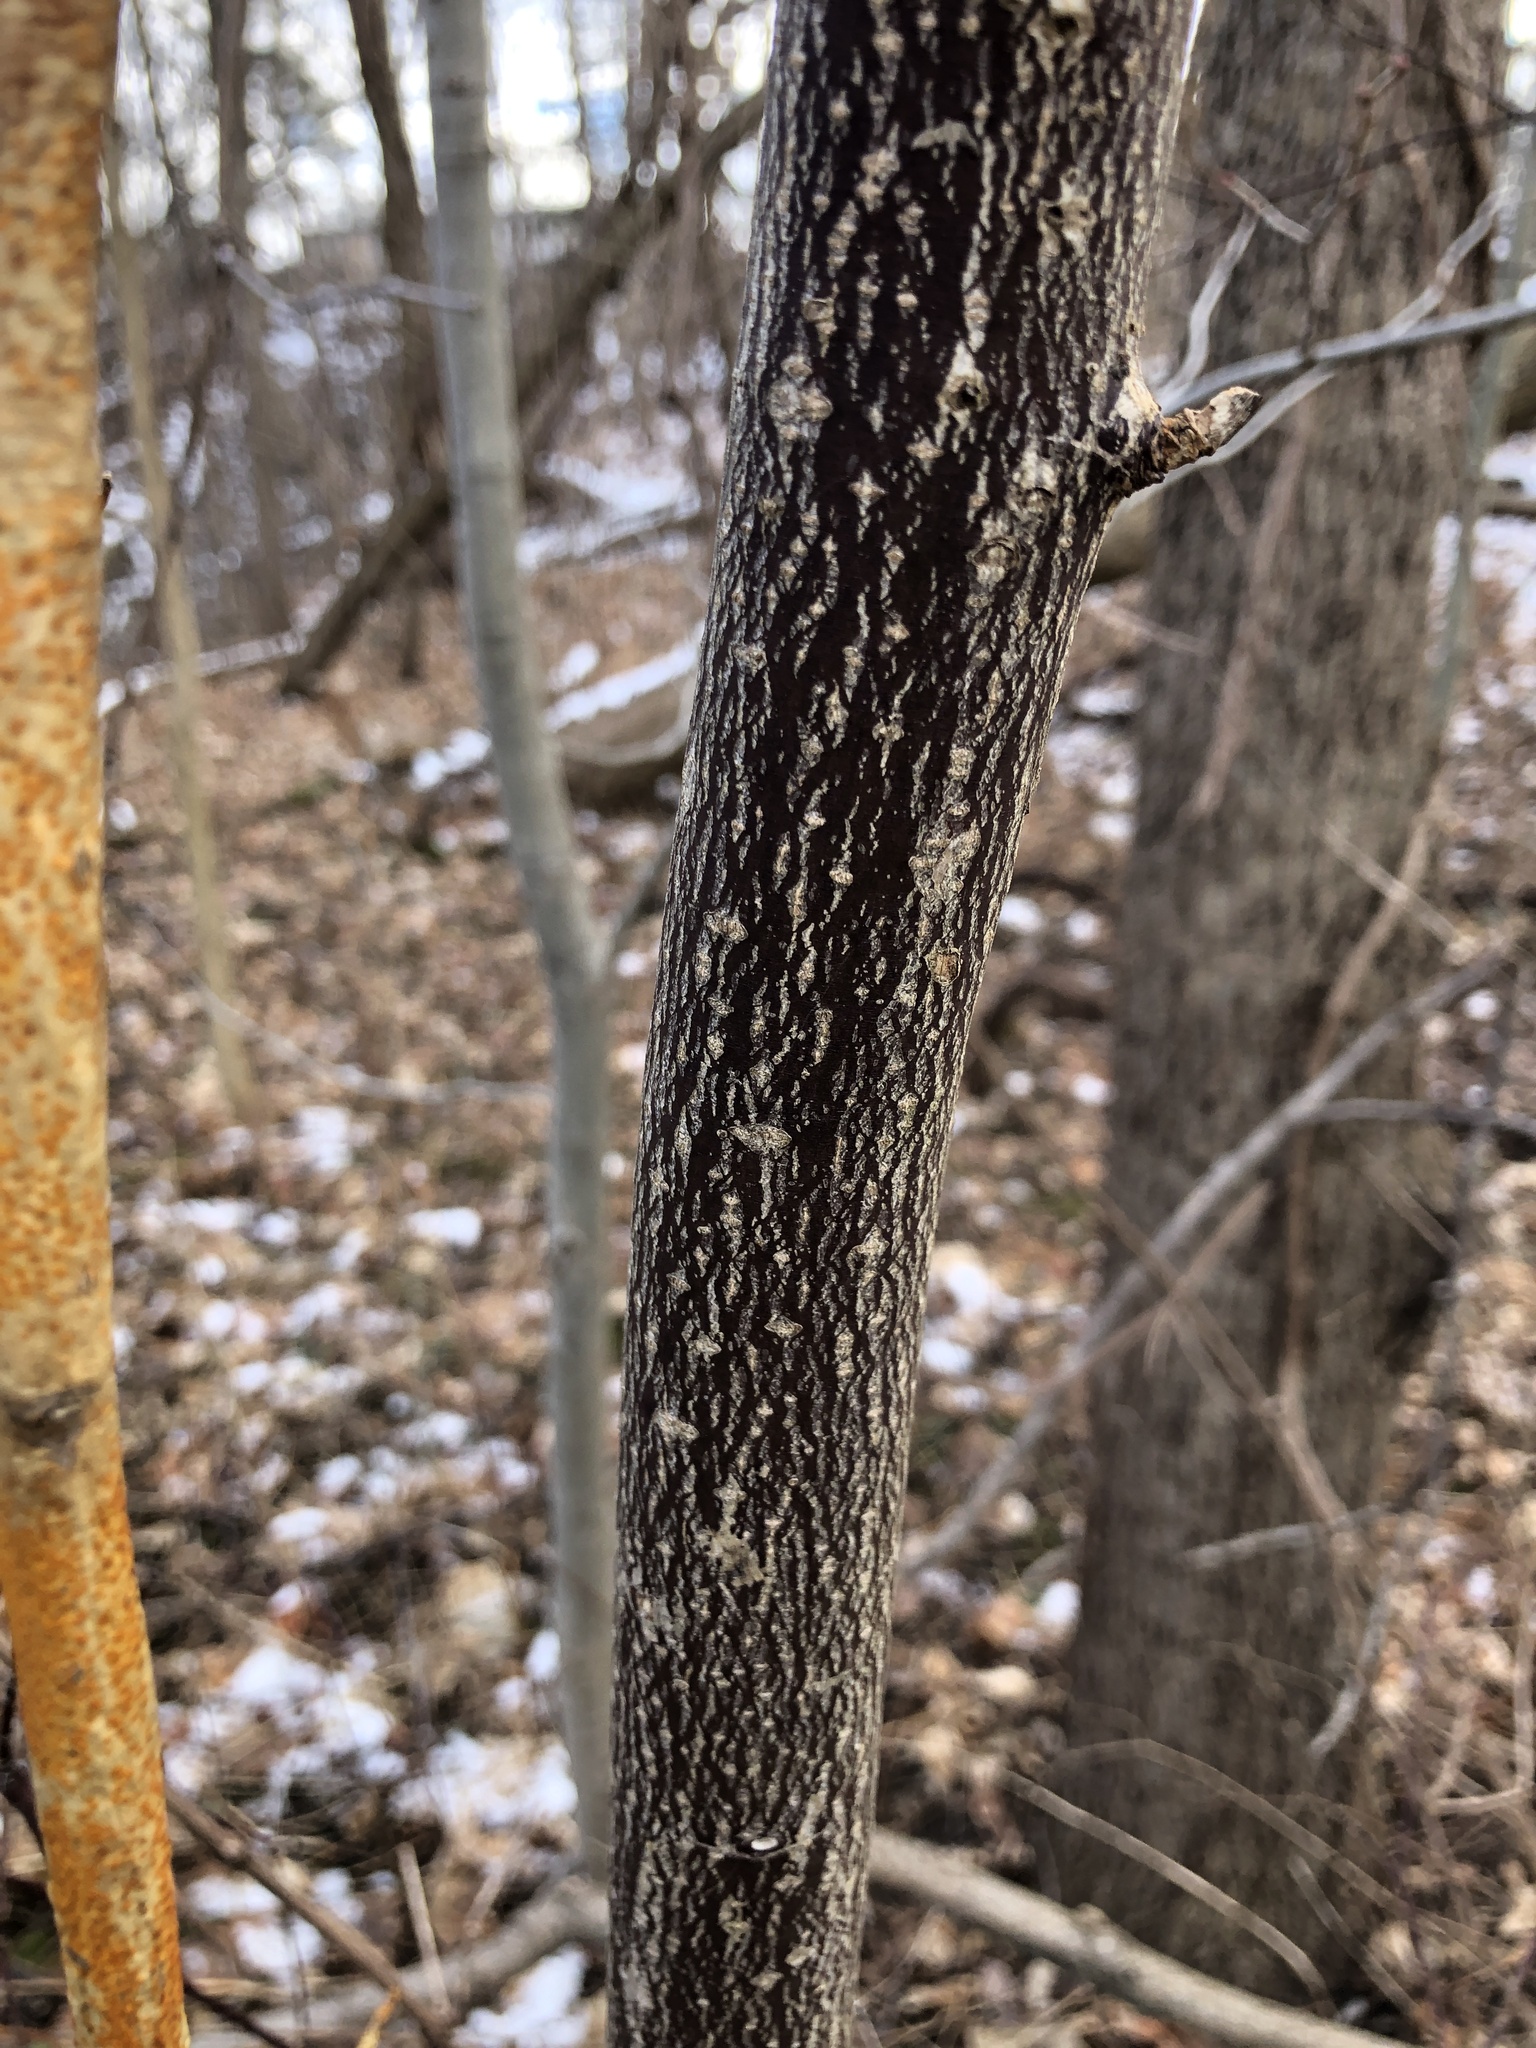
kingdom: Plantae
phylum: Tracheophyta
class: Magnoliopsida
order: Cornales
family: Cornaceae
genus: Cornus
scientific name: Cornus alternifolia
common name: Pagoda dogwood
